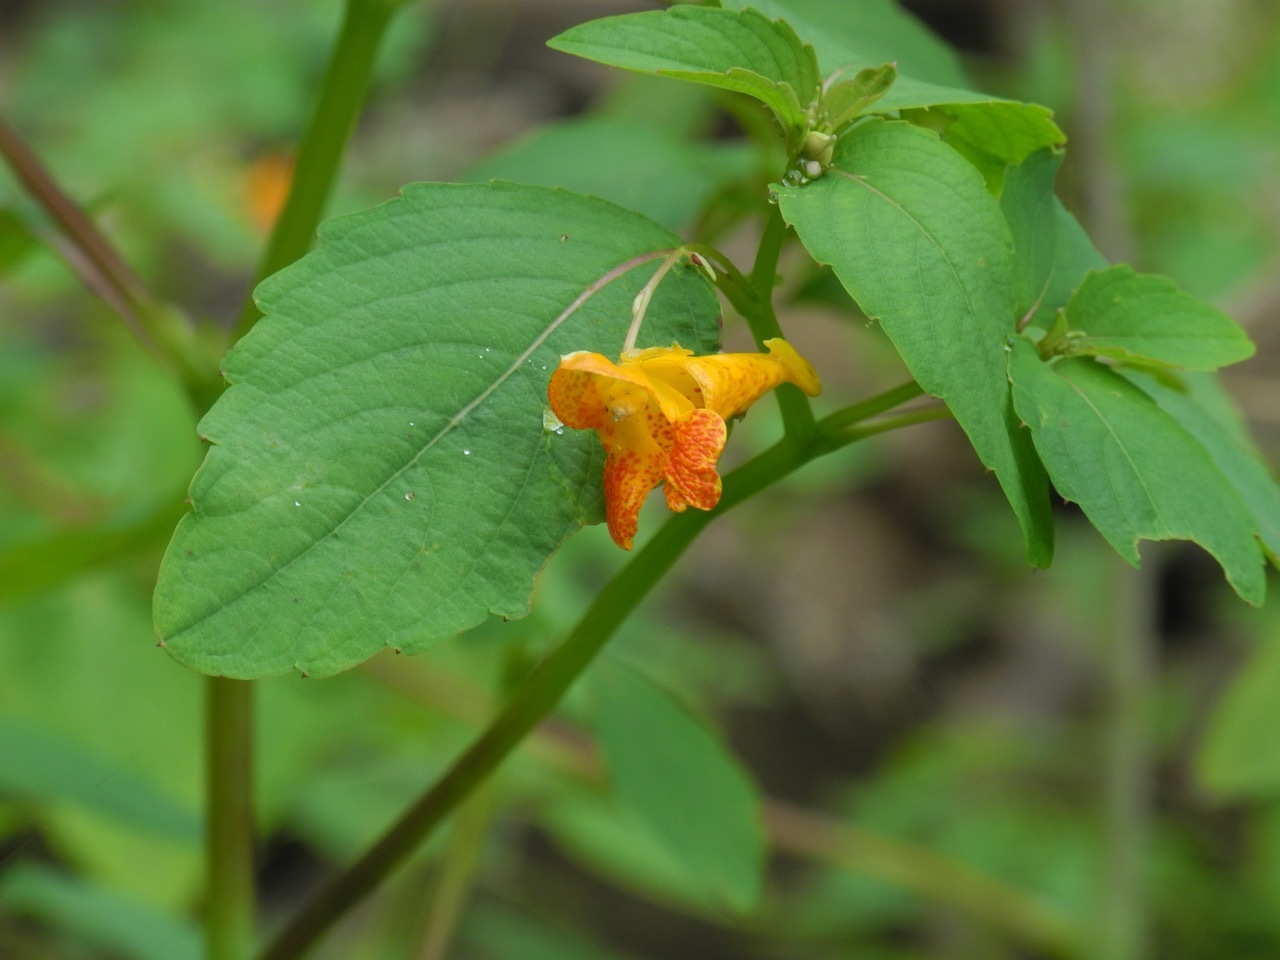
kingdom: Plantae
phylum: Tracheophyta
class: Magnoliopsida
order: Ericales
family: Balsaminaceae
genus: Impatiens
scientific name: Impatiens capensis
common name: Orange balsam
